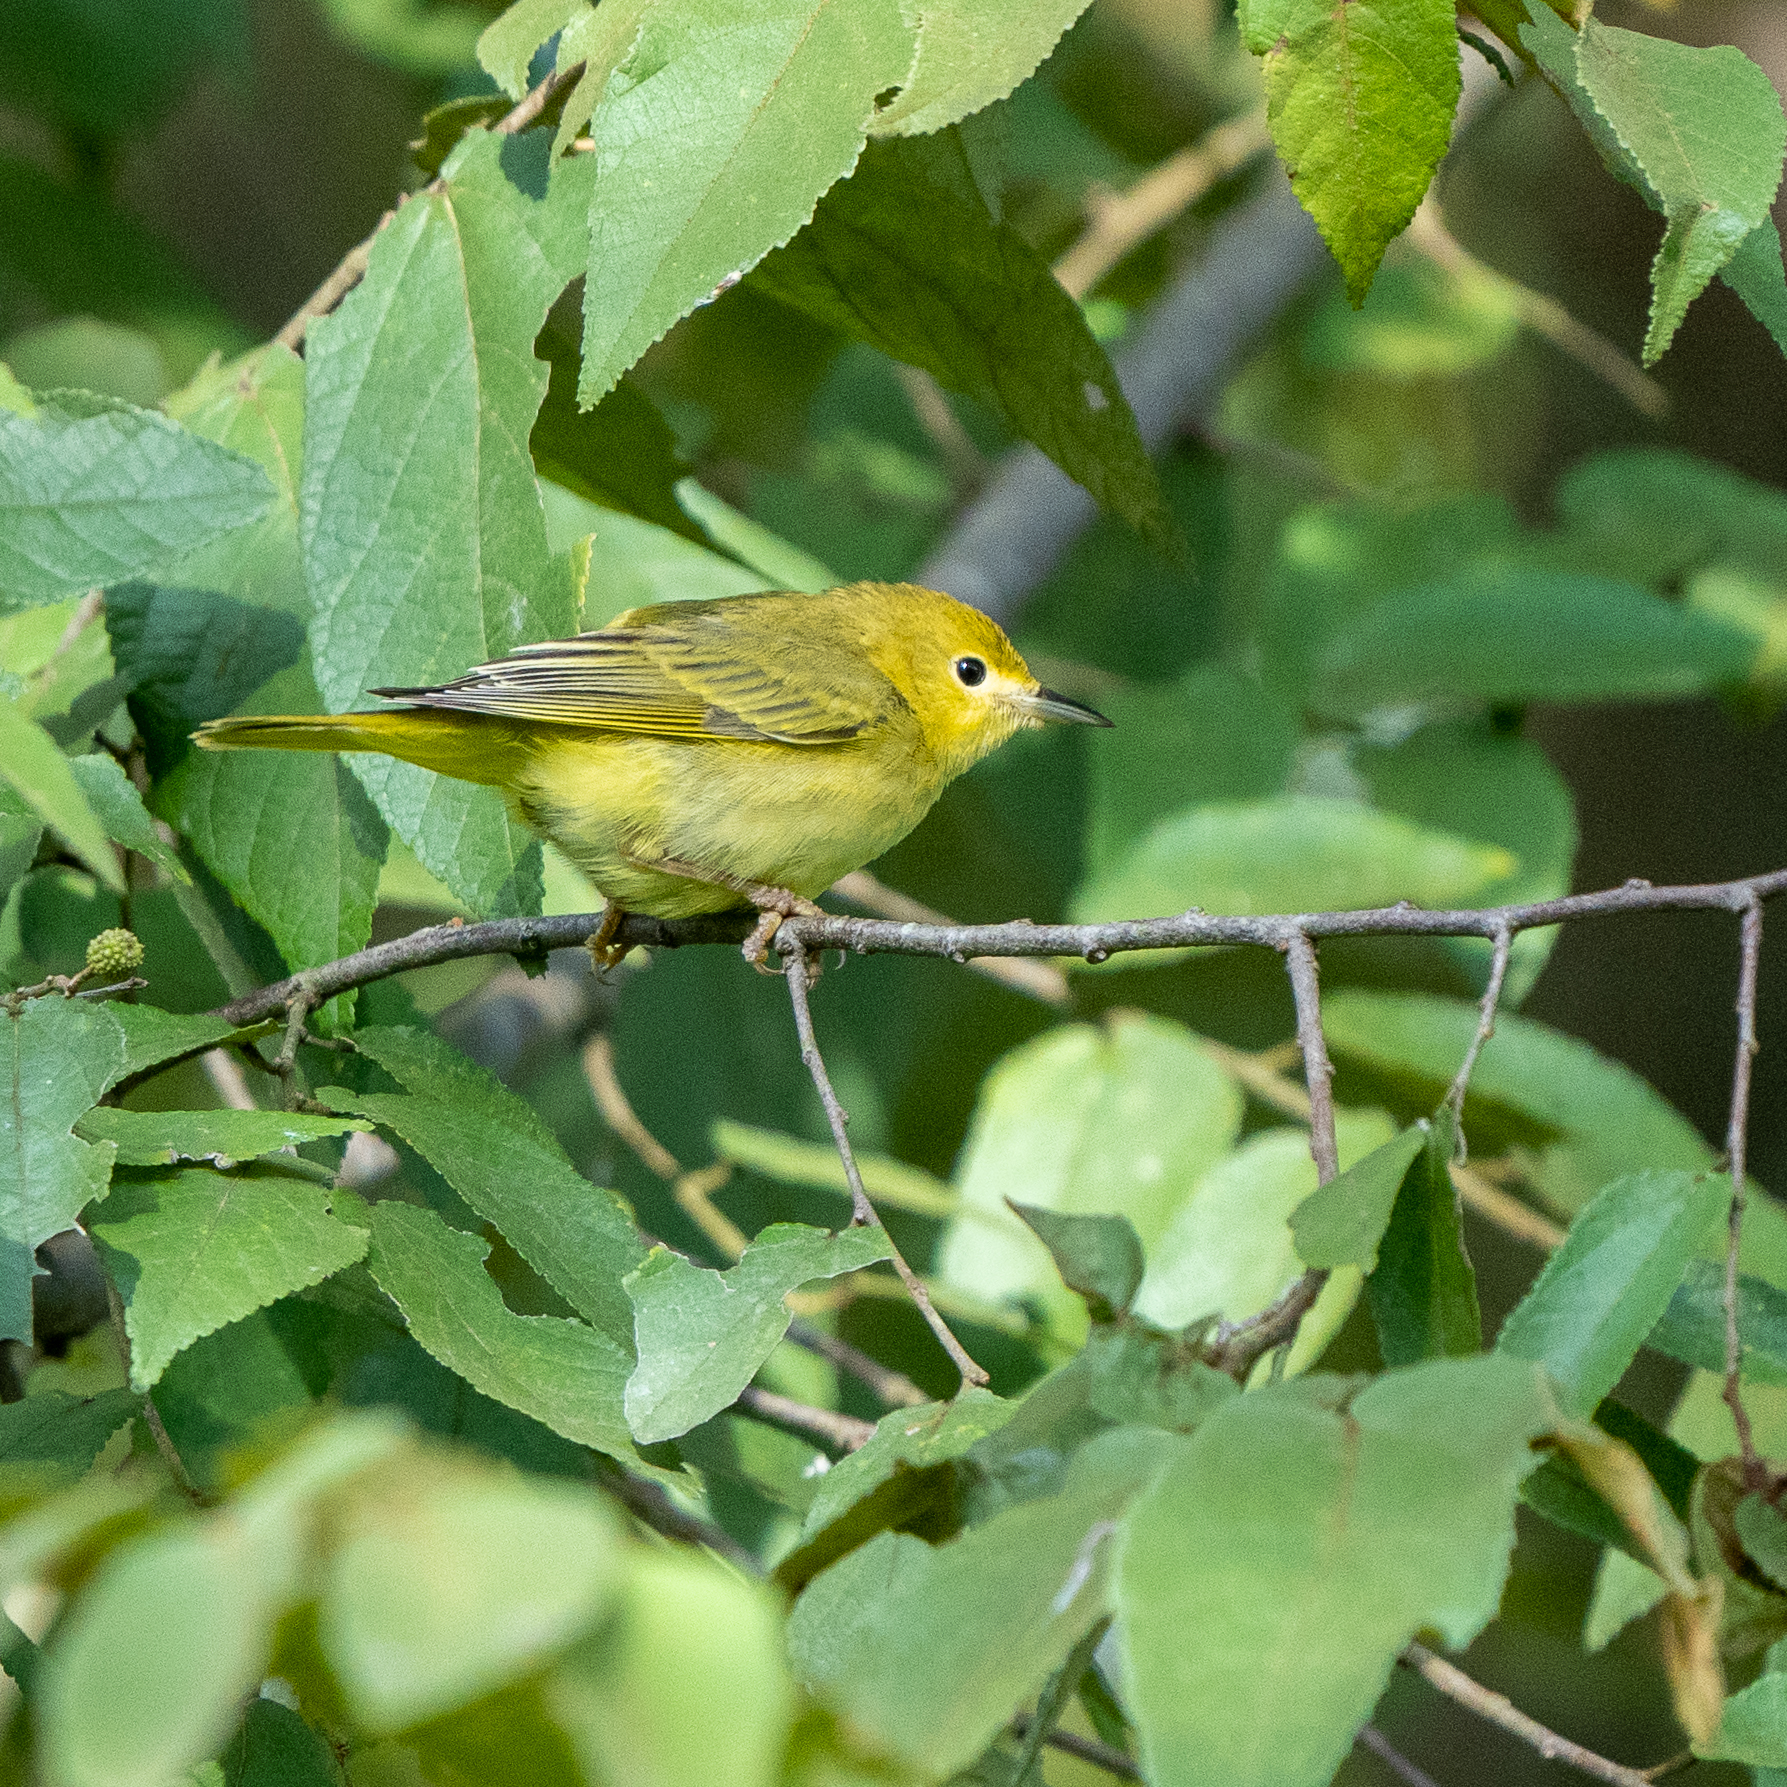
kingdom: Animalia
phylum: Chordata
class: Aves
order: Passeriformes
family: Parulidae
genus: Setophaga
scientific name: Setophaga petechia
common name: Yellow warbler
